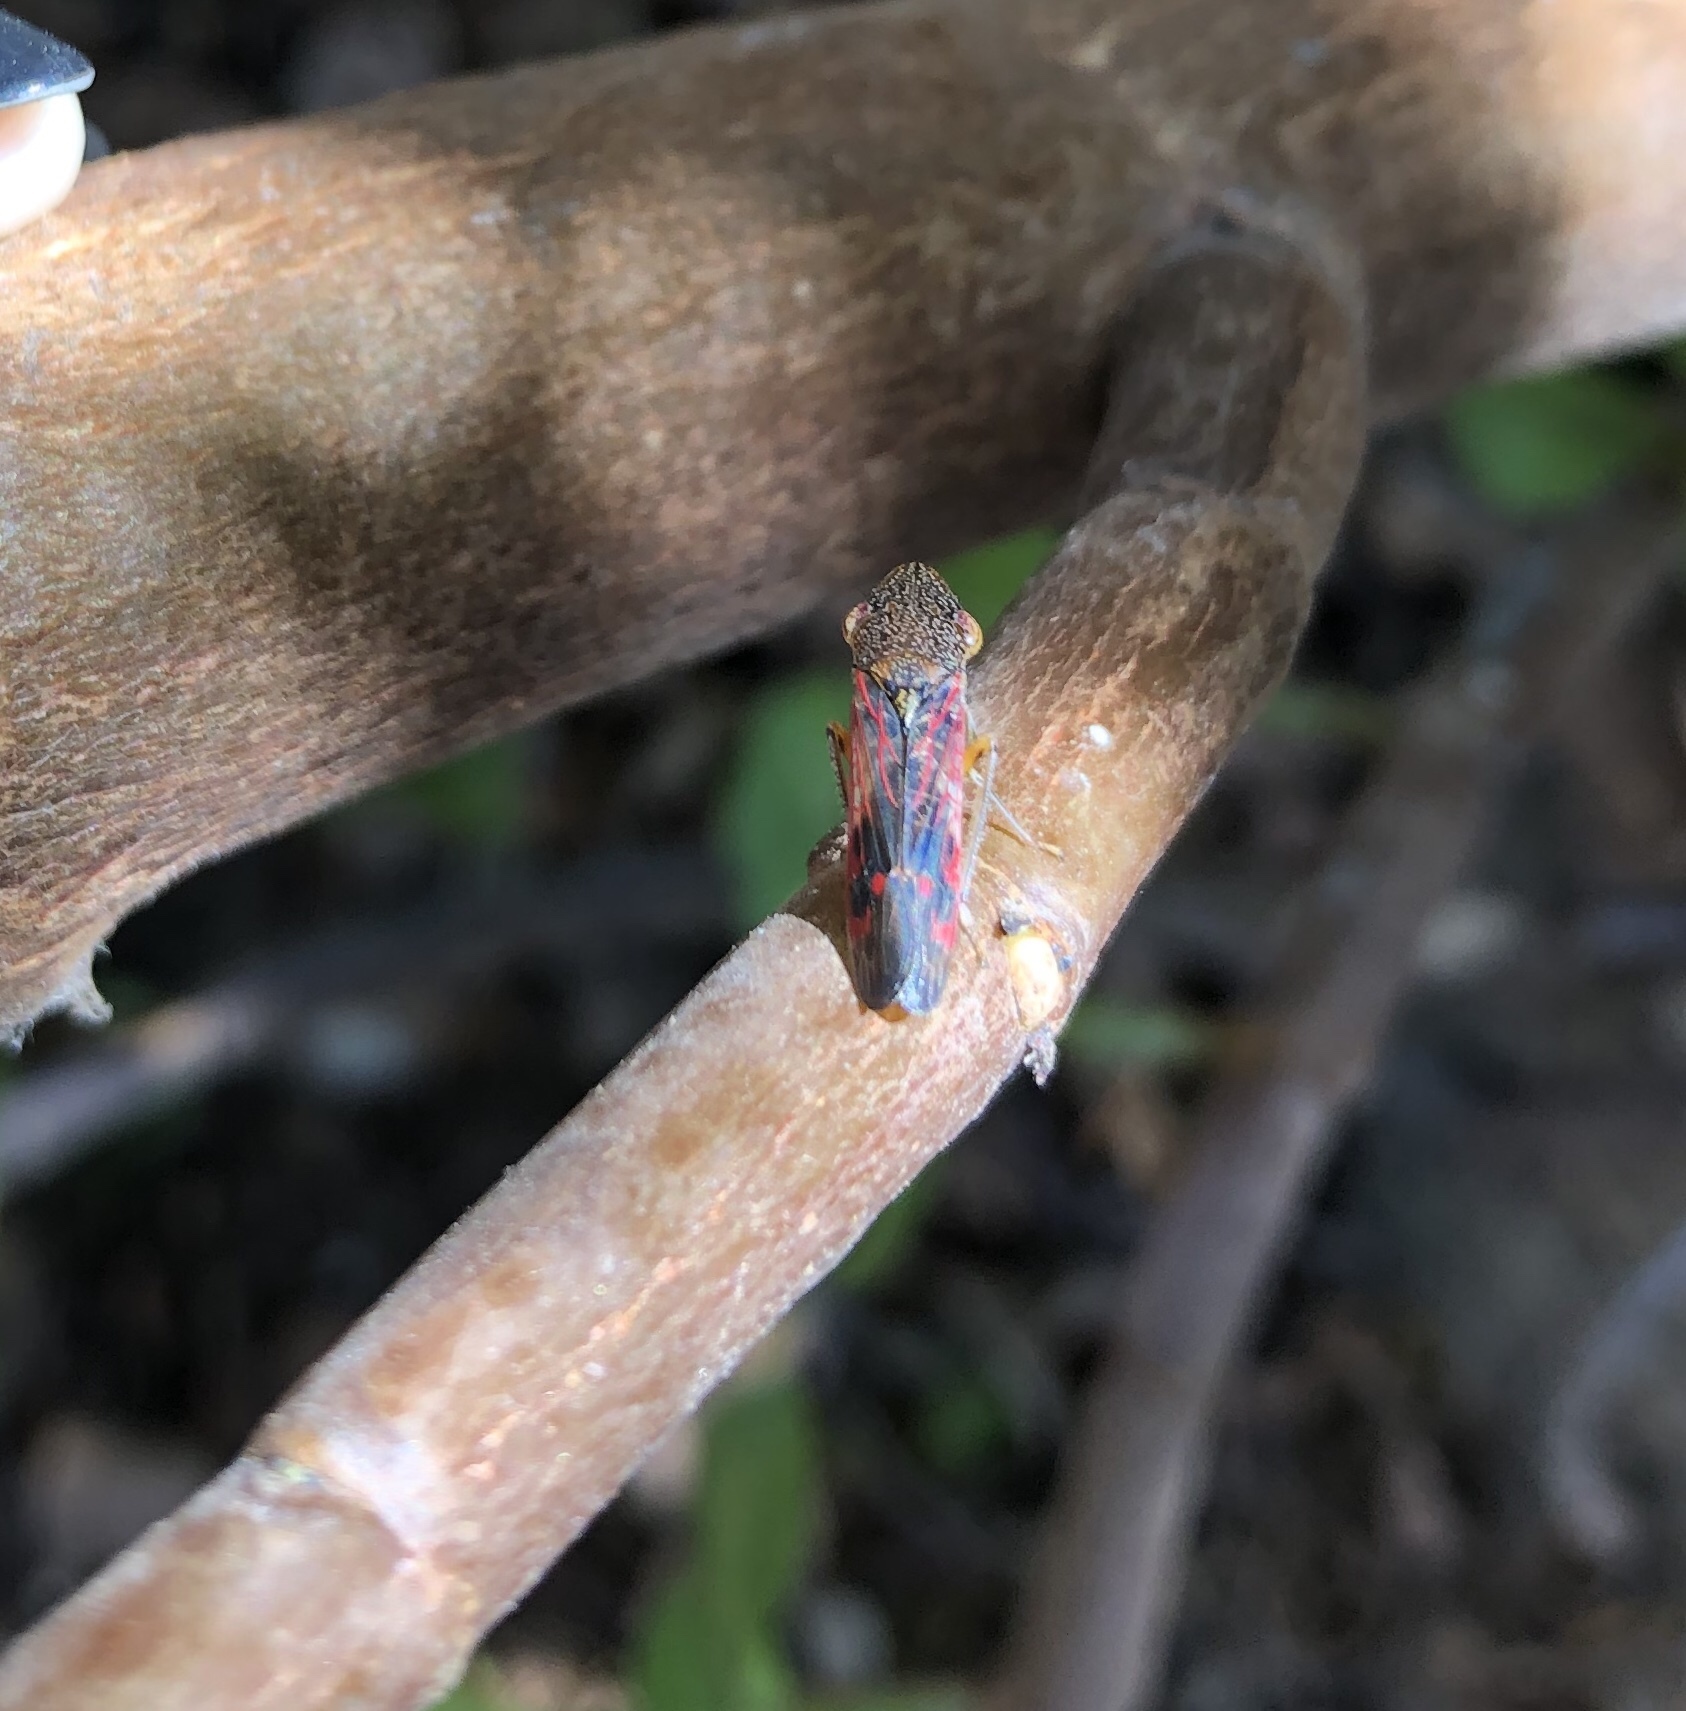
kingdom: Animalia
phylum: Arthropoda
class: Insecta
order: Hemiptera
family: Cicadellidae
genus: Homalodisca
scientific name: Homalodisca vitripennis
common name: Glassy-winged sharpshooter
